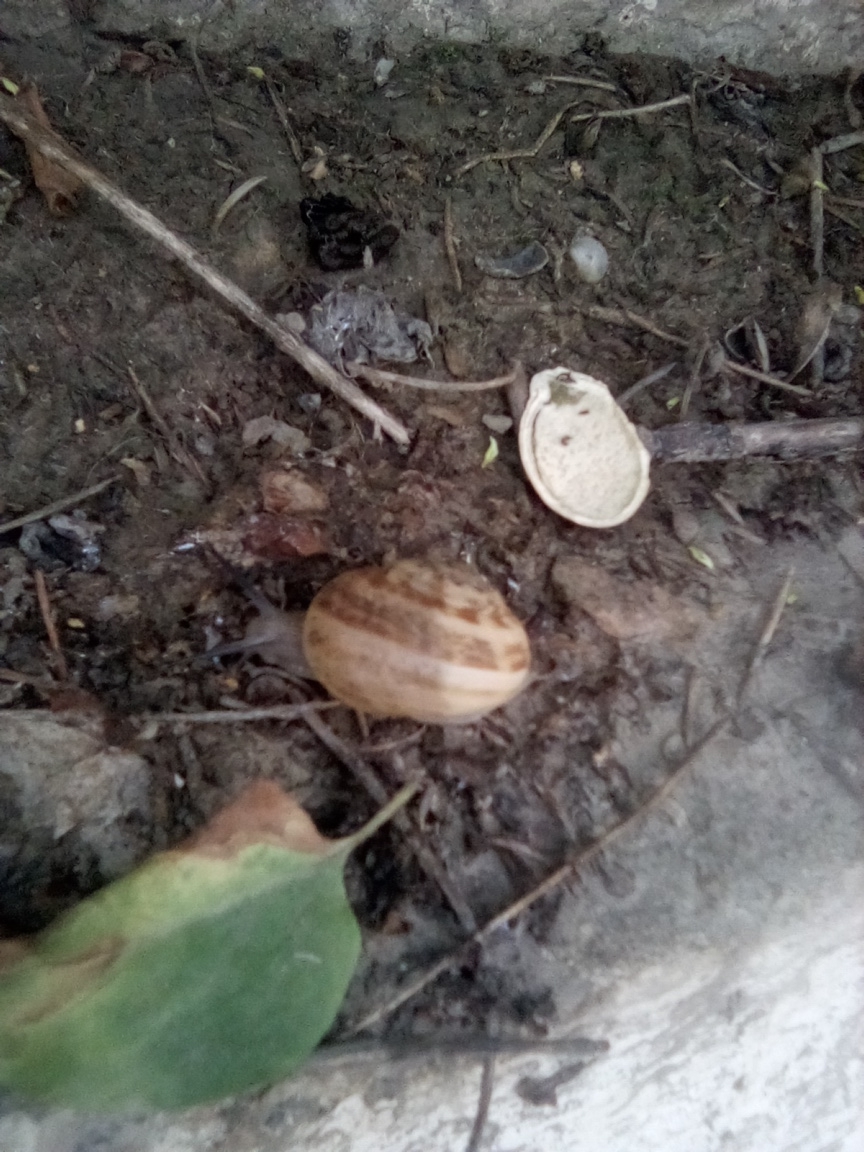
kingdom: Animalia
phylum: Mollusca
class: Gastropoda
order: Stylommatophora
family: Helicidae
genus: Eobania
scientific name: Eobania vermiculata
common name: Chocolateband snail
